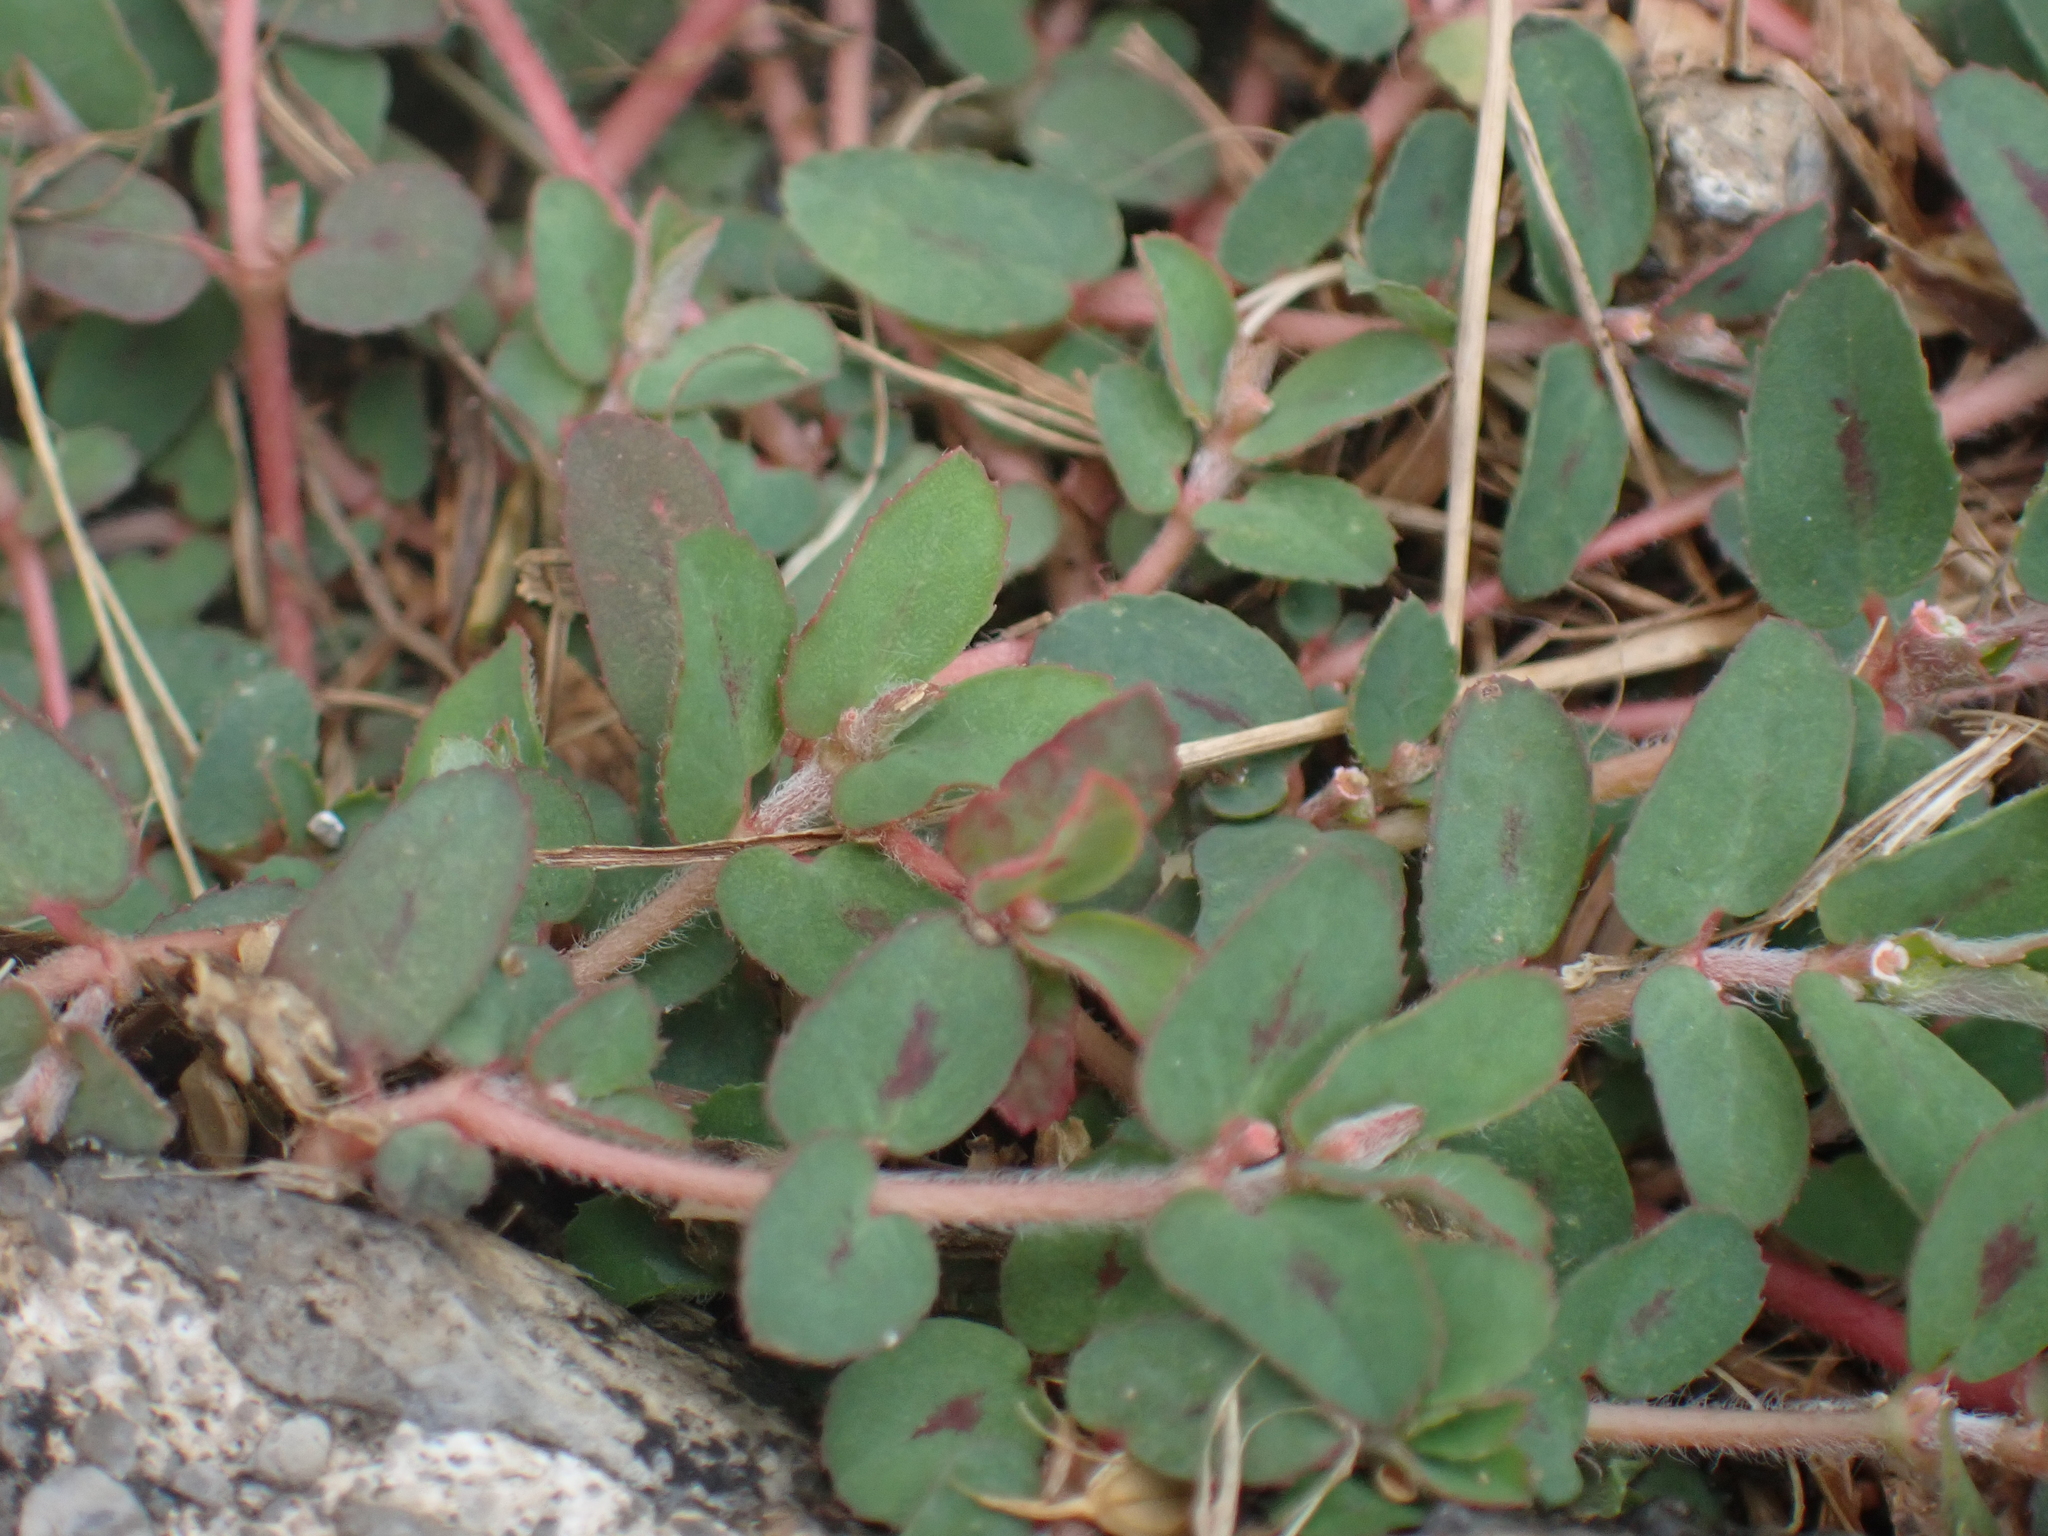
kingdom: Plantae
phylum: Tracheophyta
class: Magnoliopsida
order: Malpighiales
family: Euphorbiaceae
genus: Euphorbia
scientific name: Euphorbia maculata
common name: Spotted spurge
